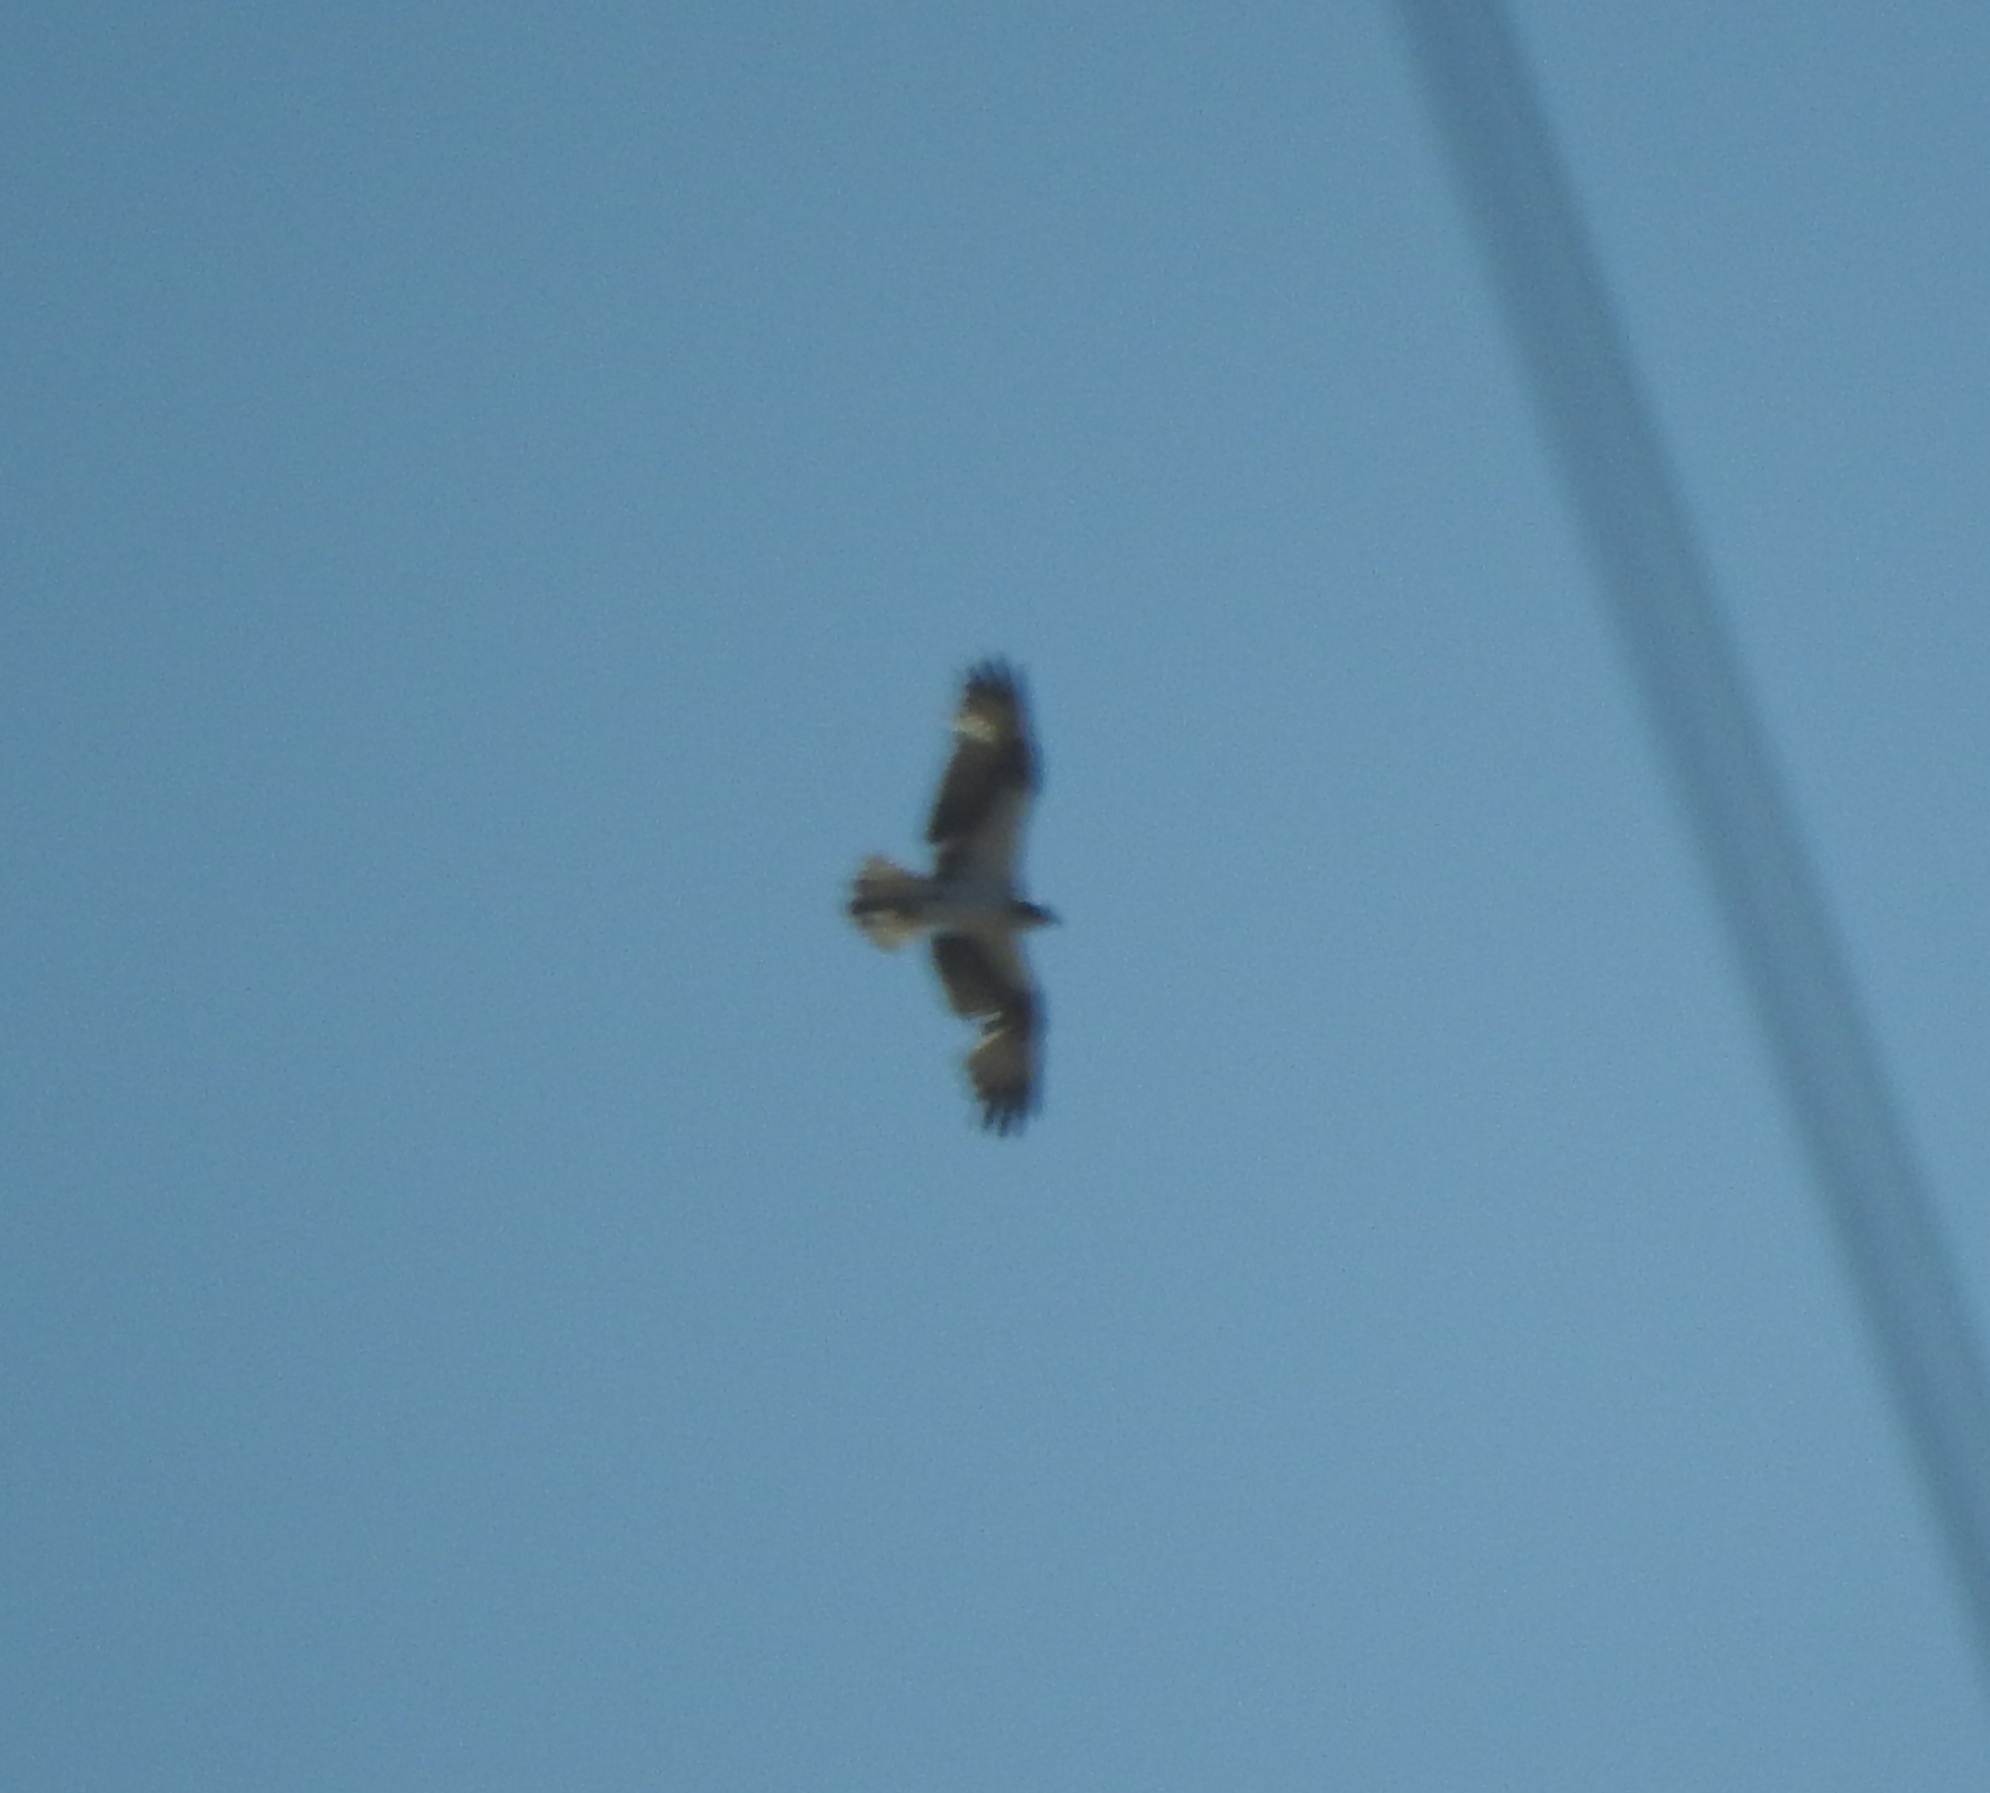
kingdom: Animalia
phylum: Chordata
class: Aves
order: Accipitriformes
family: Pandionidae
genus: Pandion
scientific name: Pandion haliaetus
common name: Osprey
